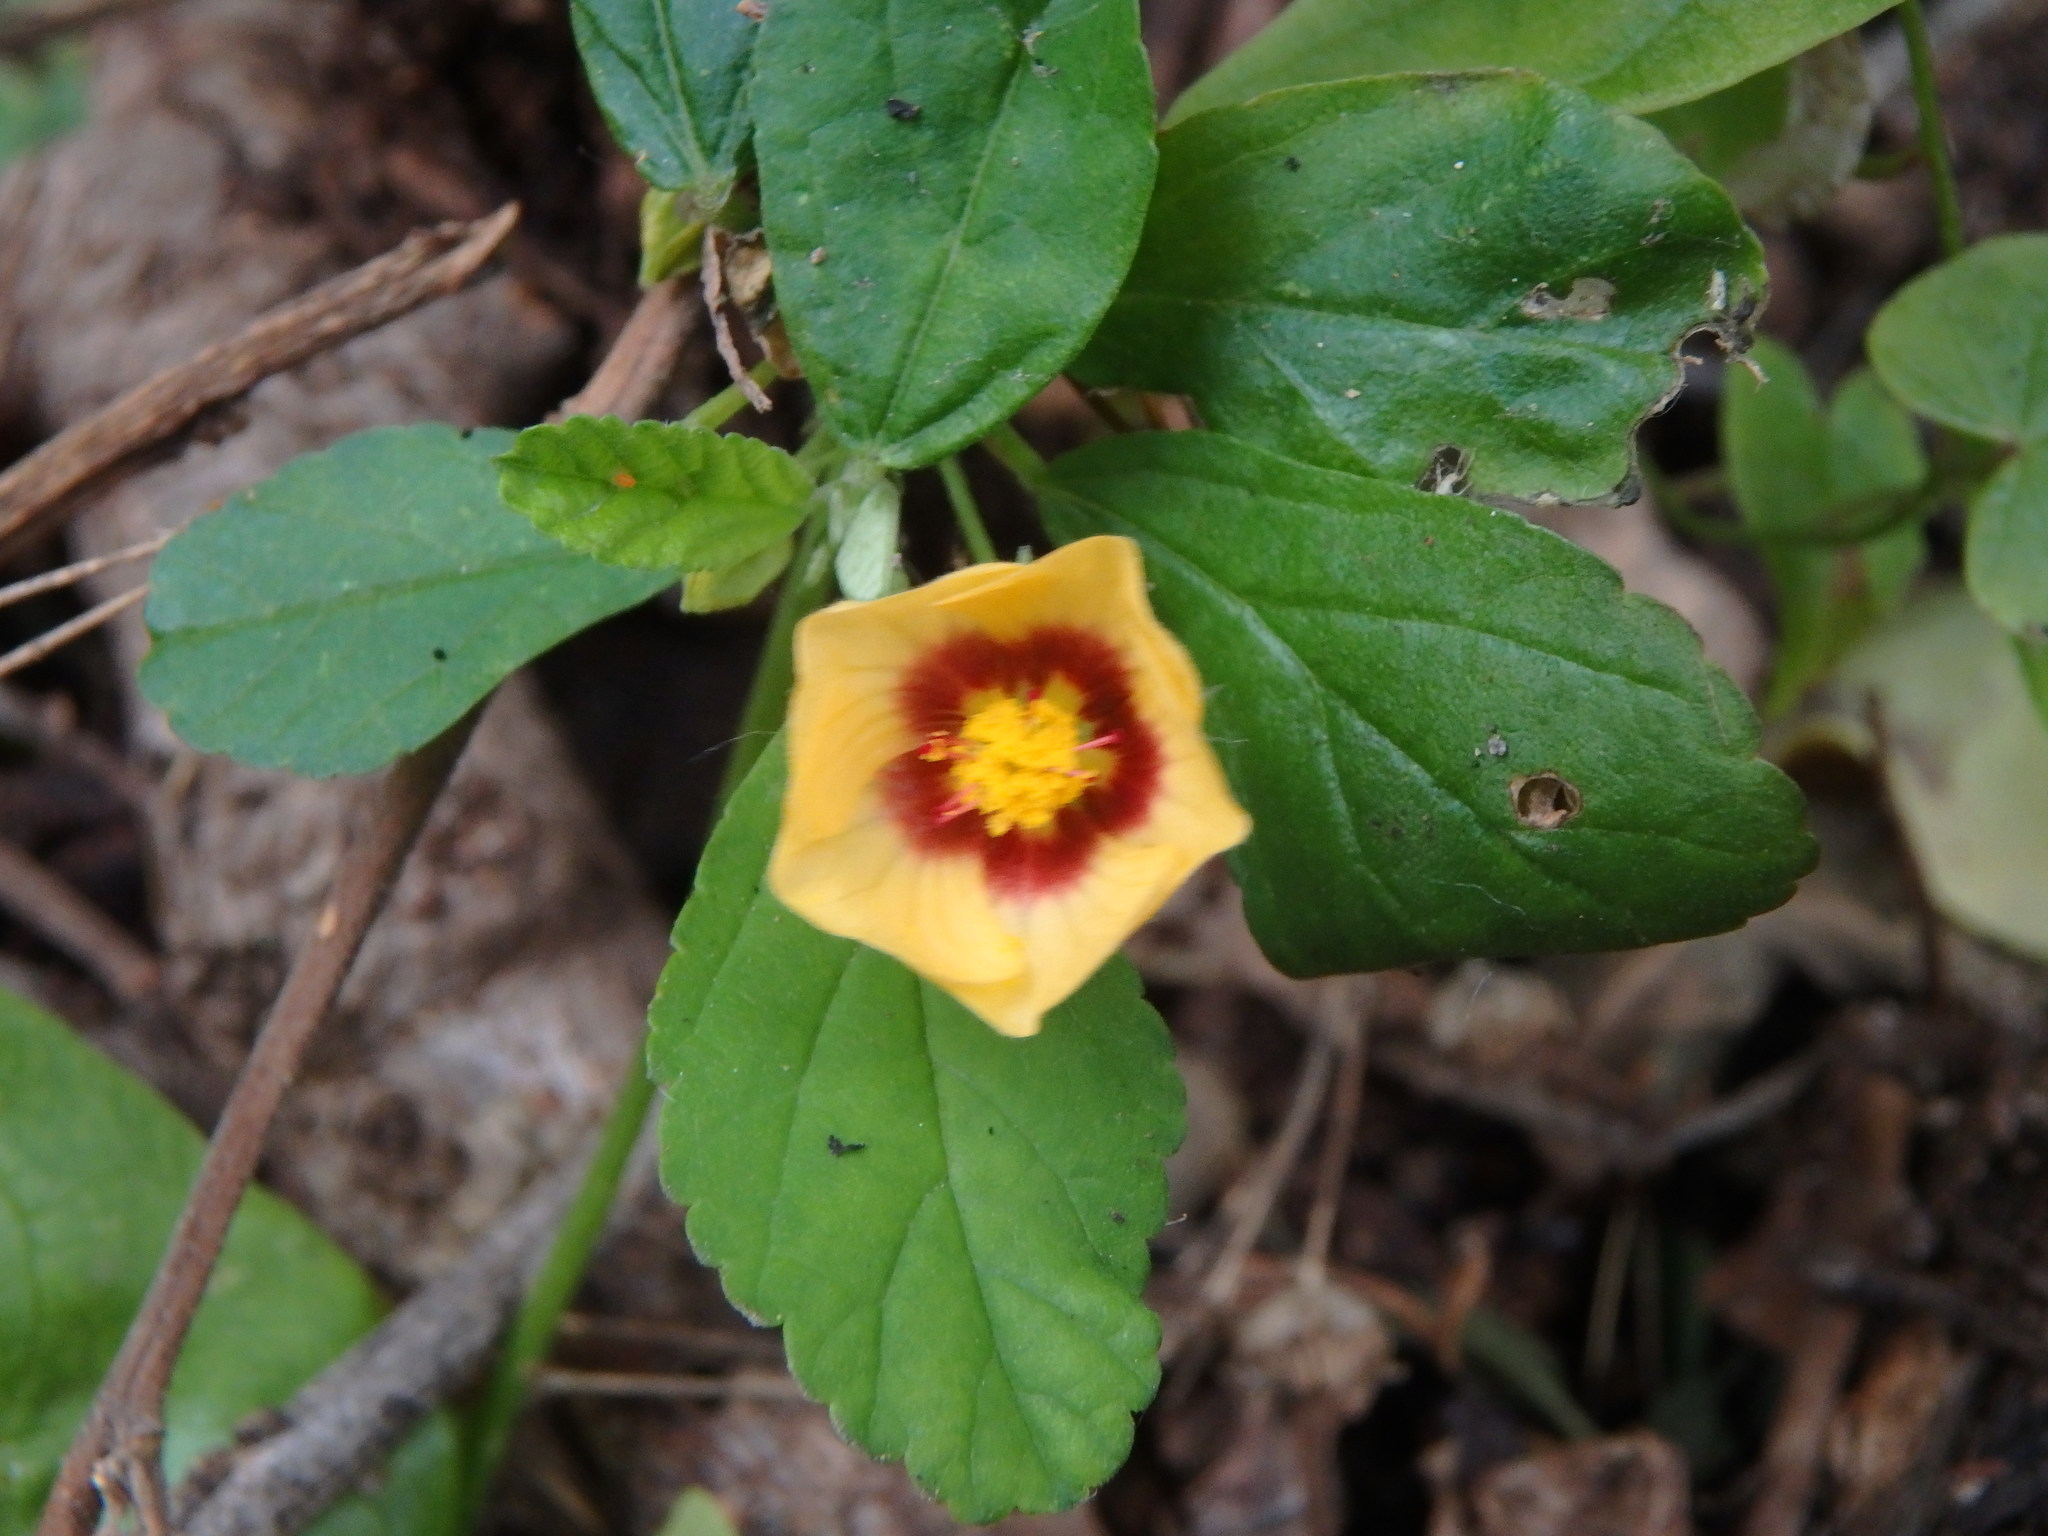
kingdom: Plantae
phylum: Tracheophyta
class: Magnoliopsida
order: Malvales
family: Malvaceae
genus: Sida
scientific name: Sida rhombifolia
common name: Queensland-hemp
